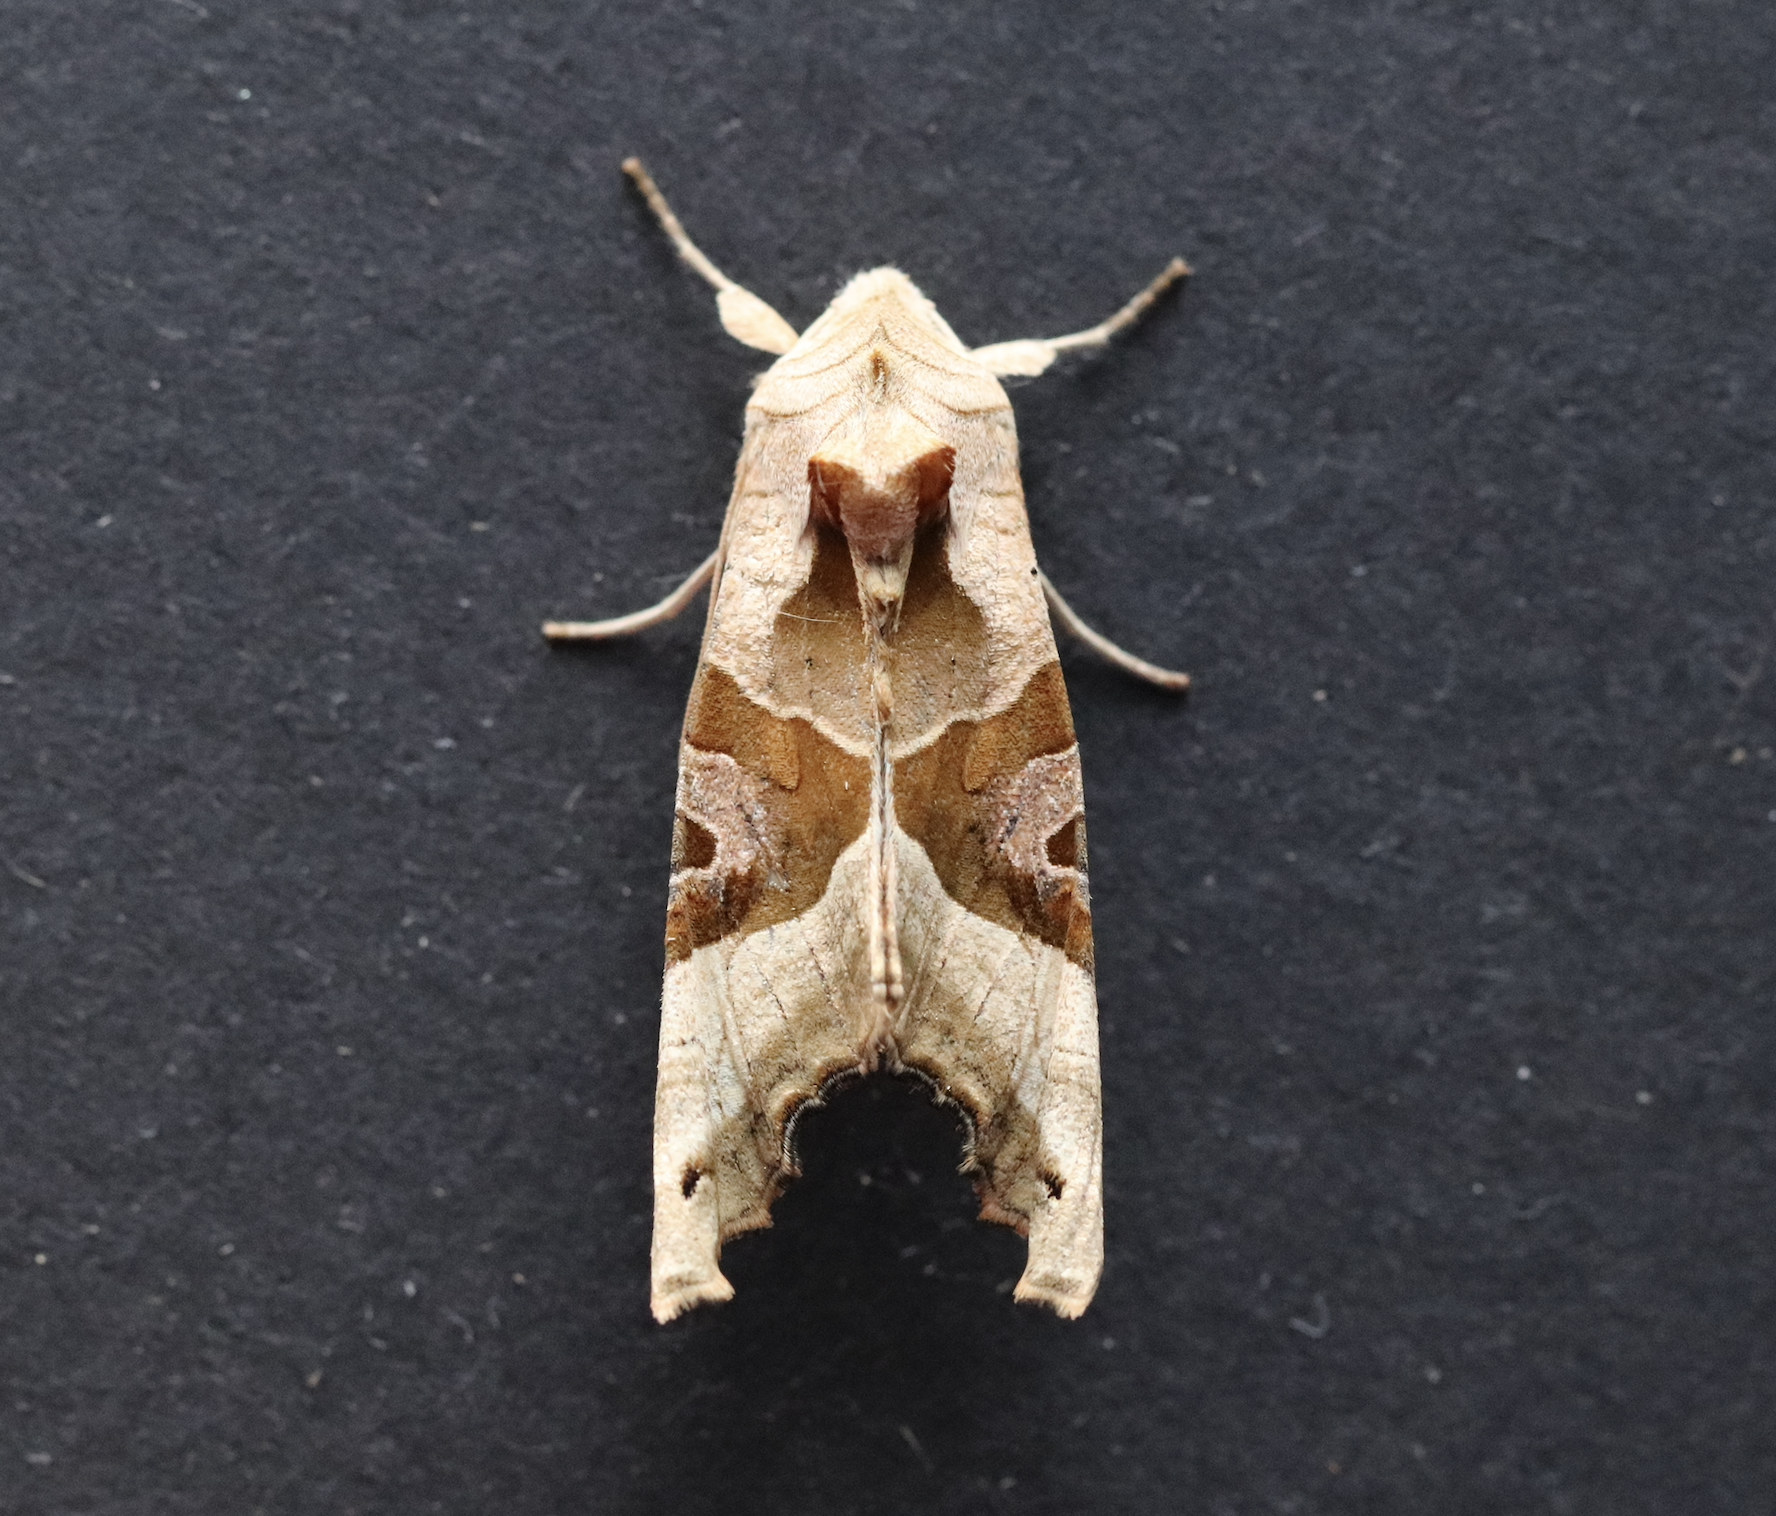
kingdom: Animalia
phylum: Arthropoda
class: Insecta
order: Lepidoptera
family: Noctuidae
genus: Phlogophora
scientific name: Phlogophora meticulosa
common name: Angle shades
